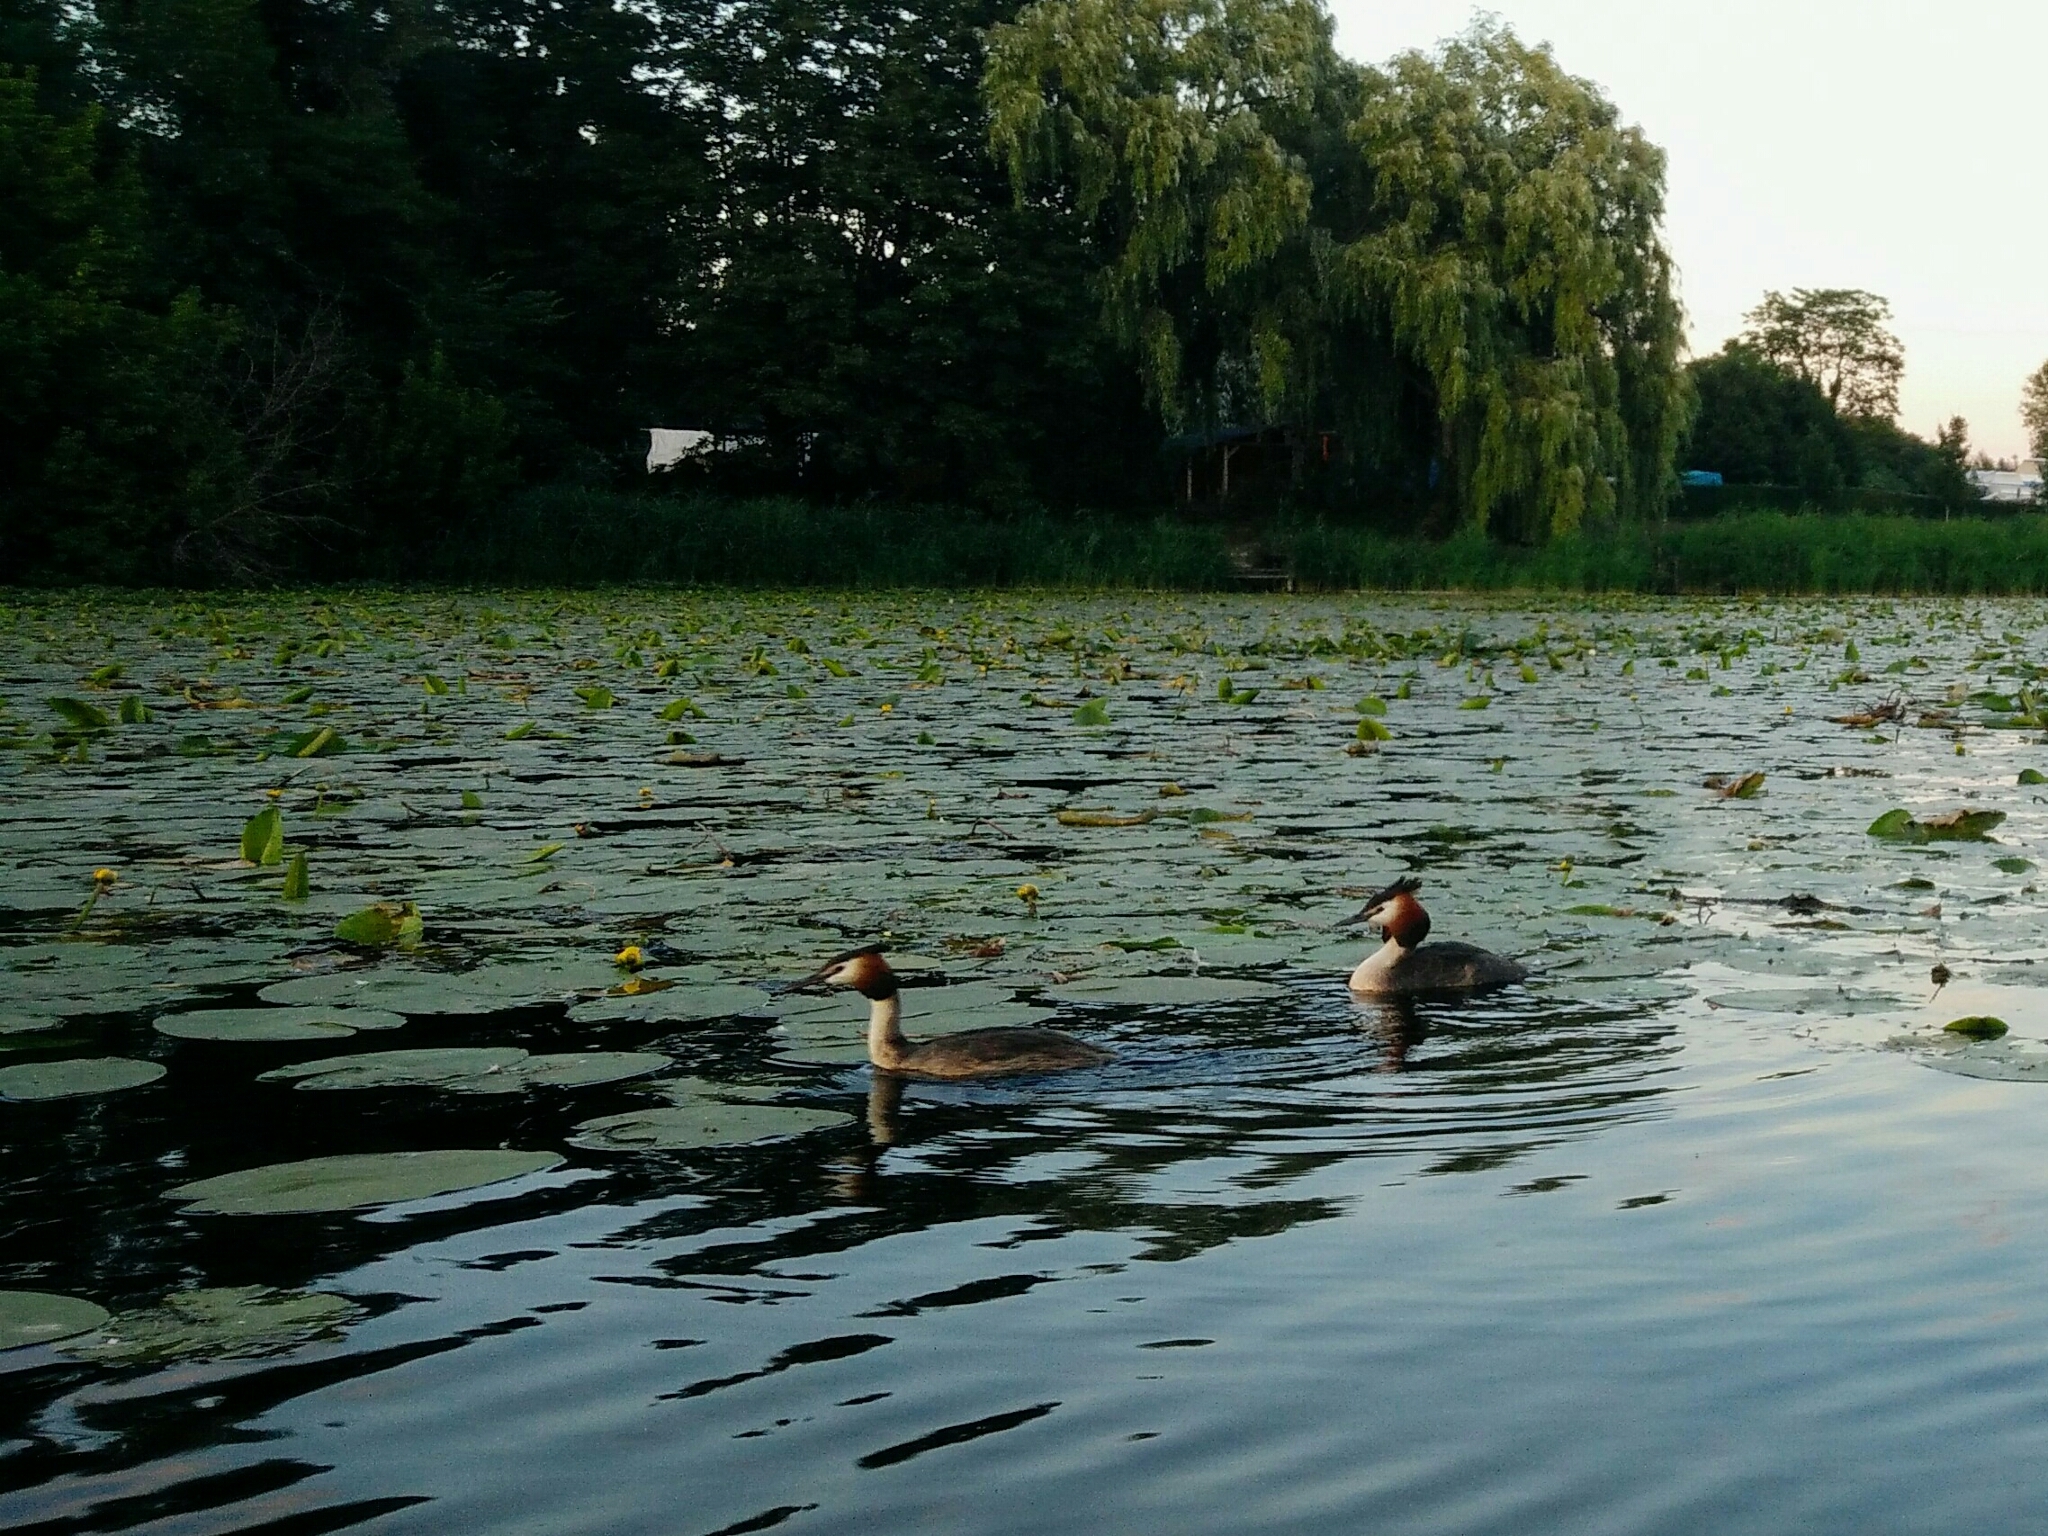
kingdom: Animalia
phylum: Chordata
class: Aves
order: Podicipediformes
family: Podicipedidae
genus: Podiceps
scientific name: Podiceps cristatus
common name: Great crested grebe
